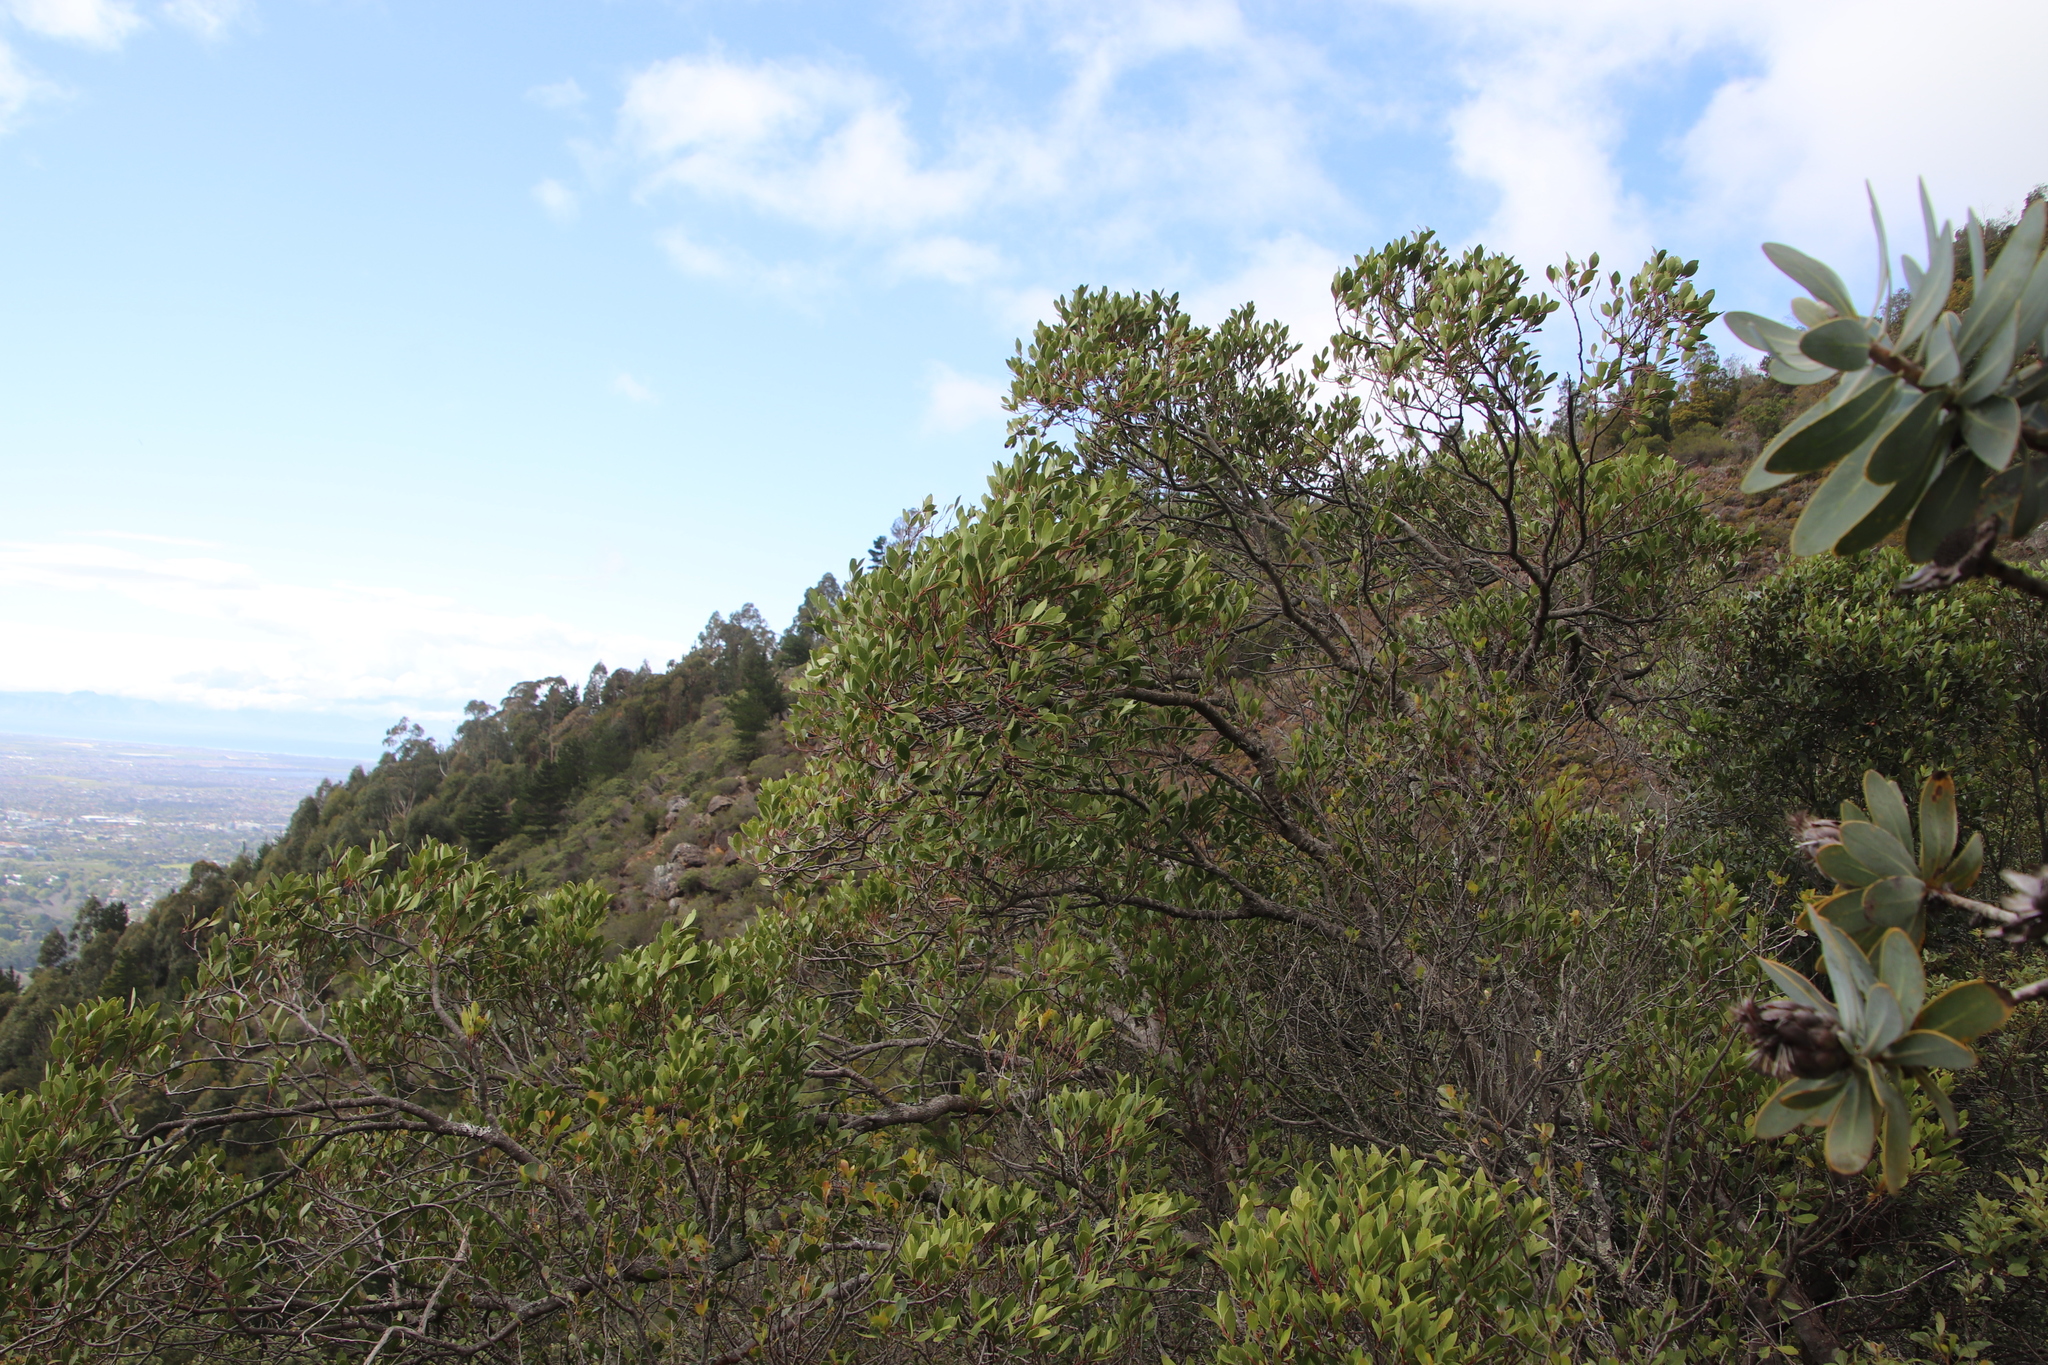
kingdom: Plantae
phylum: Tracheophyta
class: Magnoliopsida
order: Celastrales
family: Celastraceae
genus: Gymnosporia
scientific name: Gymnosporia laurina
